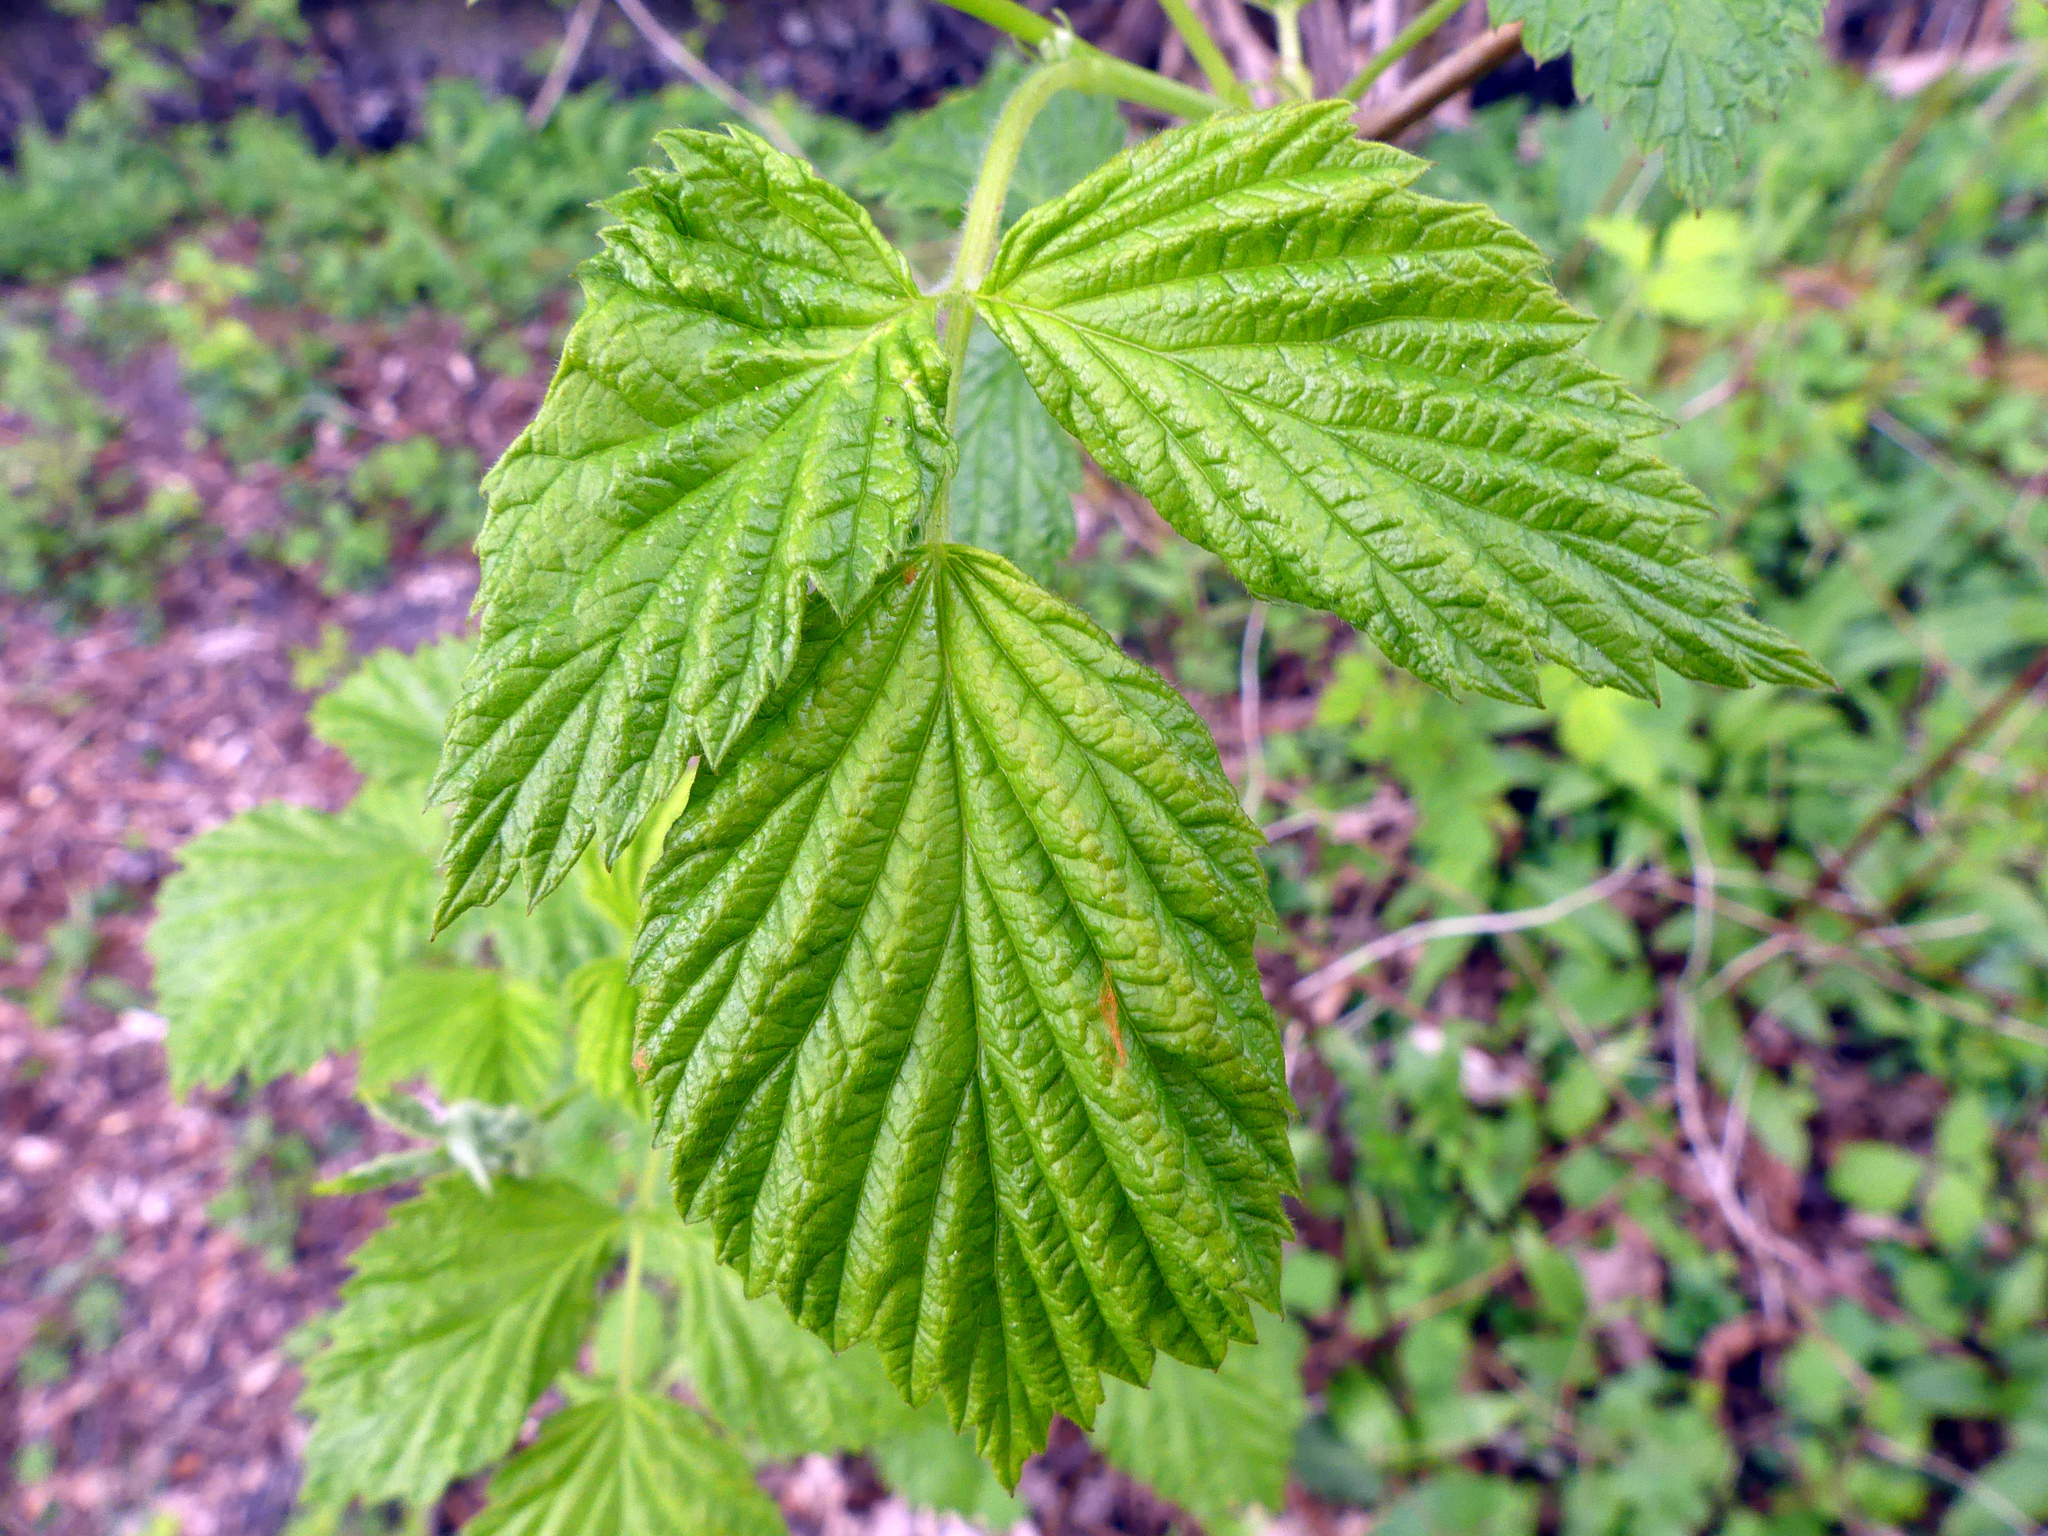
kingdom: Plantae
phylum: Tracheophyta
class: Magnoliopsida
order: Rosales
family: Rosaceae
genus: Rubus
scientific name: Rubus idaeus
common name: Raspberry
